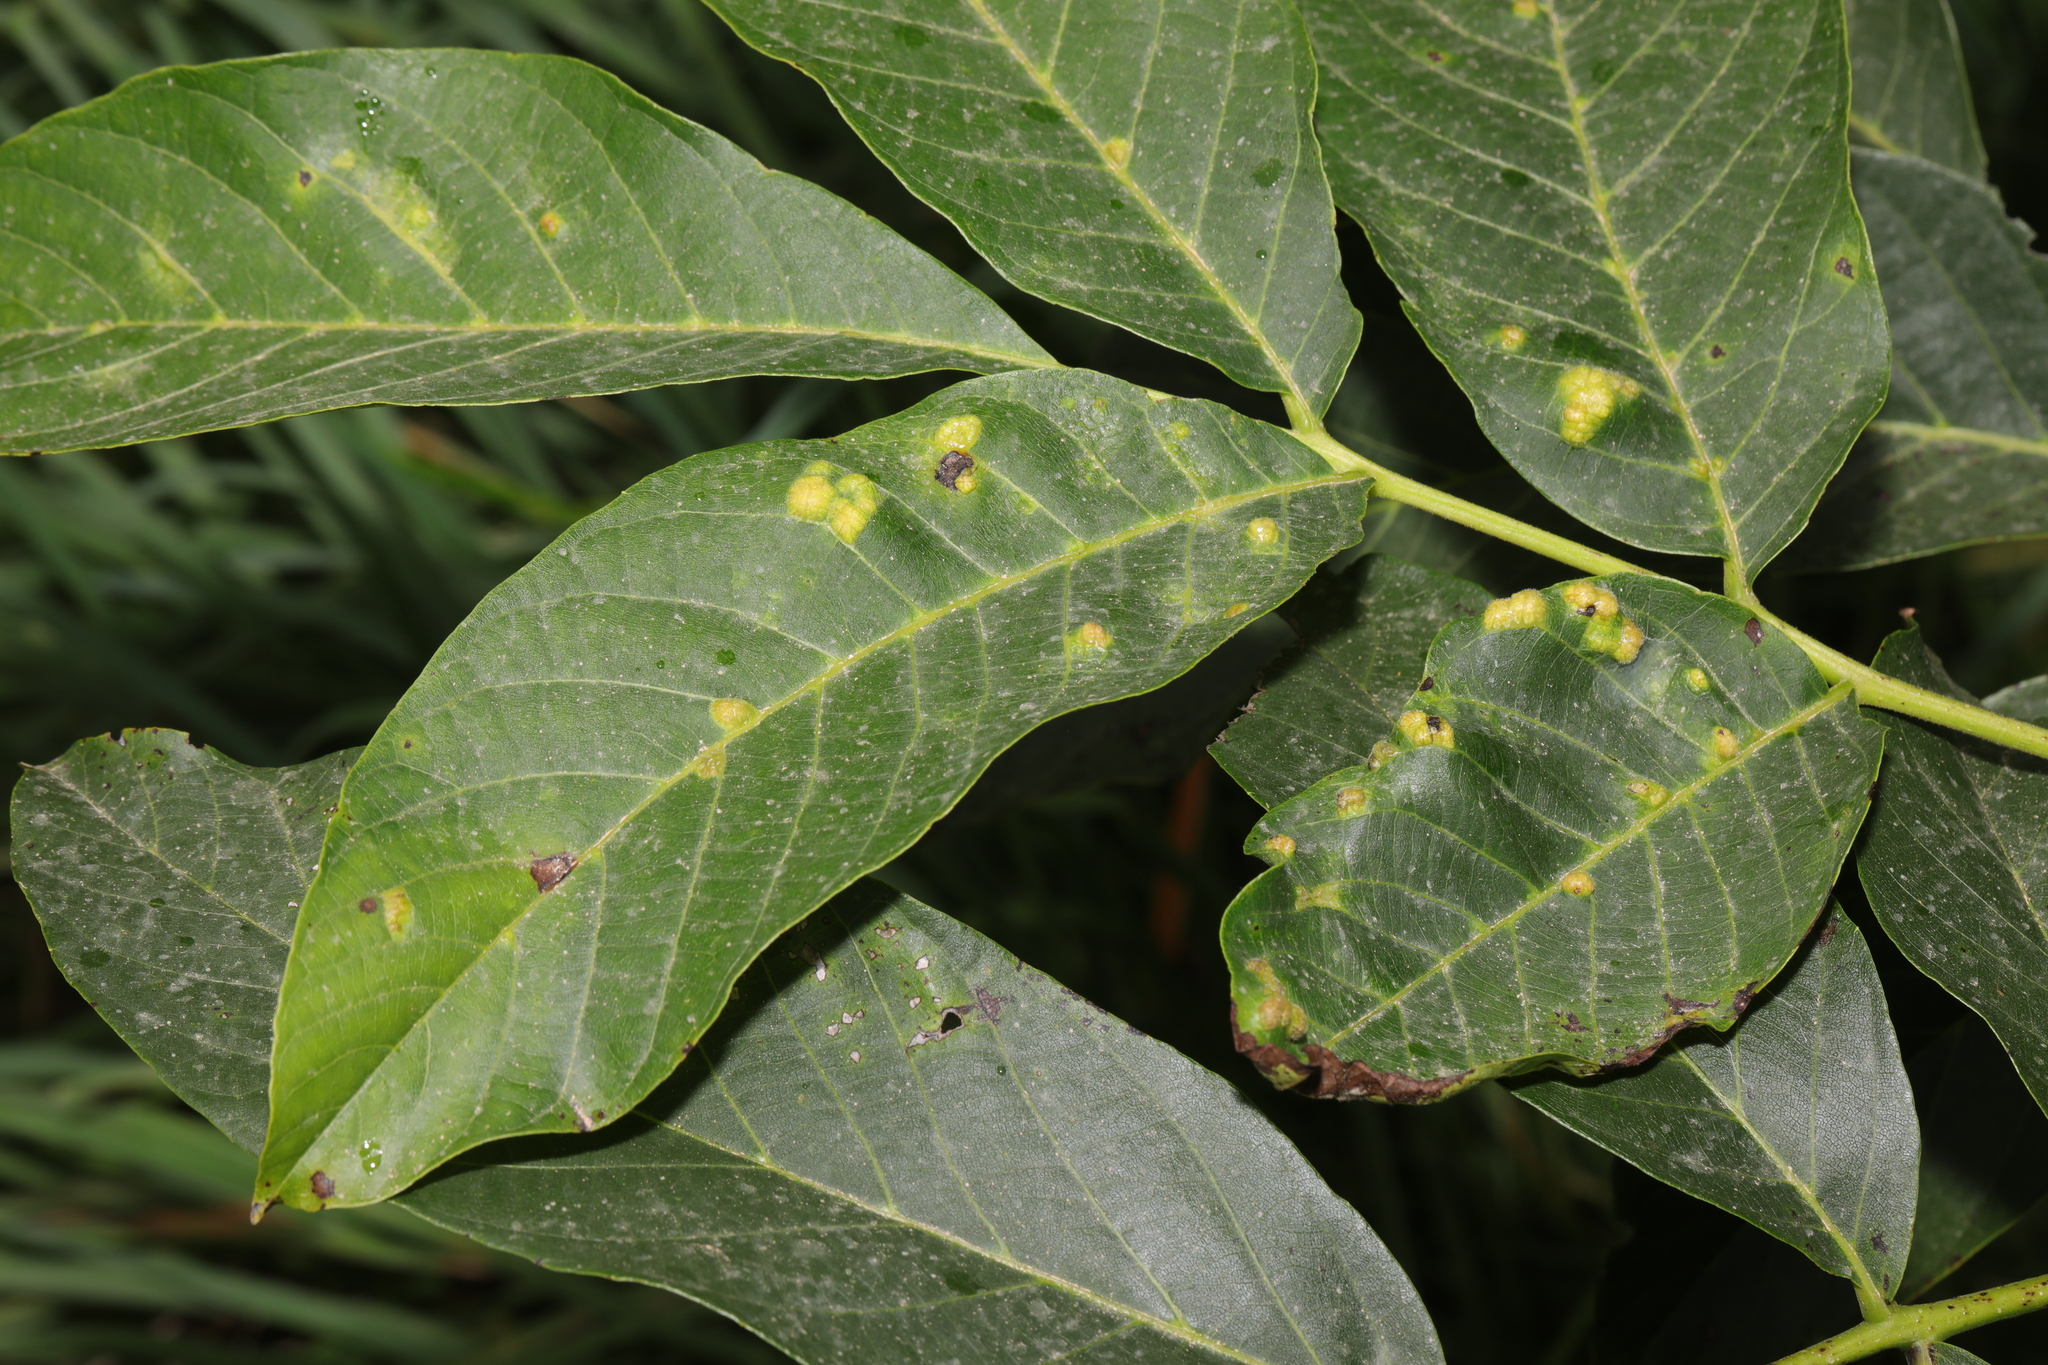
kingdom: Plantae
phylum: Tracheophyta
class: Magnoliopsida
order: Fagales
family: Juglandaceae
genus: Juglans
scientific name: Juglans regia
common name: Walnut
